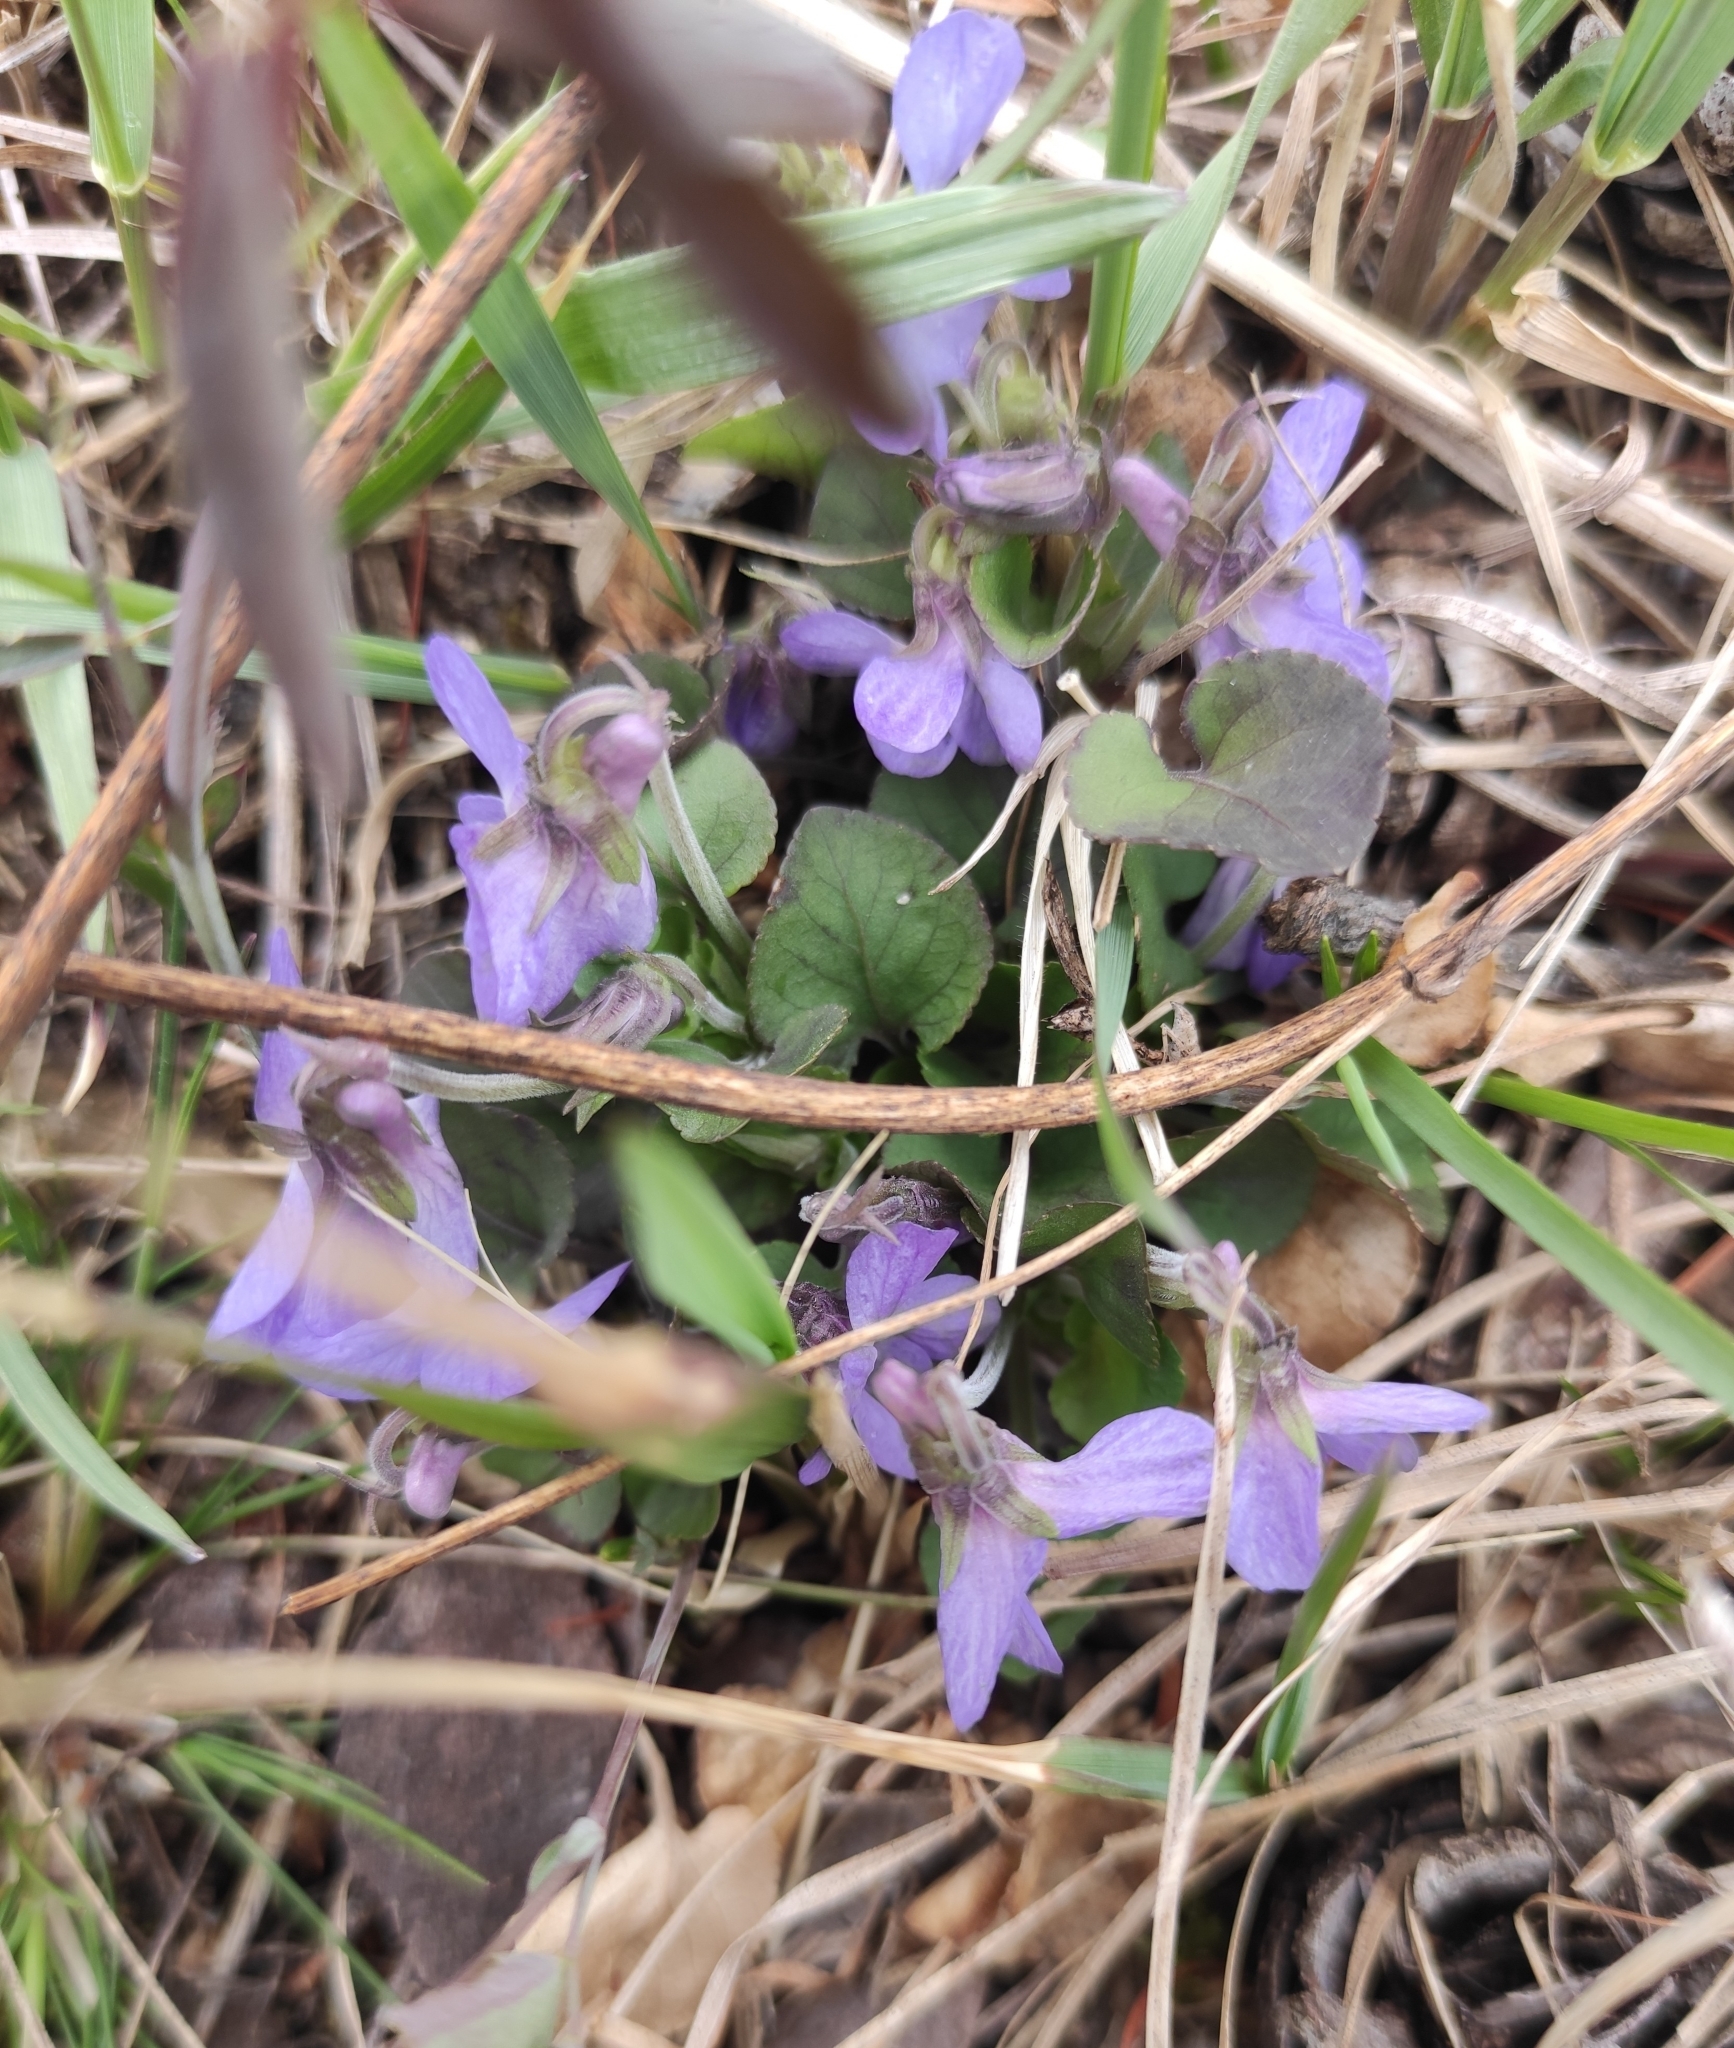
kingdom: Plantae
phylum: Tracheophyta
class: Magnoliopsida
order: Malpighiales
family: Violaceae
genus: Viola
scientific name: Viola rupestris
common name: Teesdale violet
